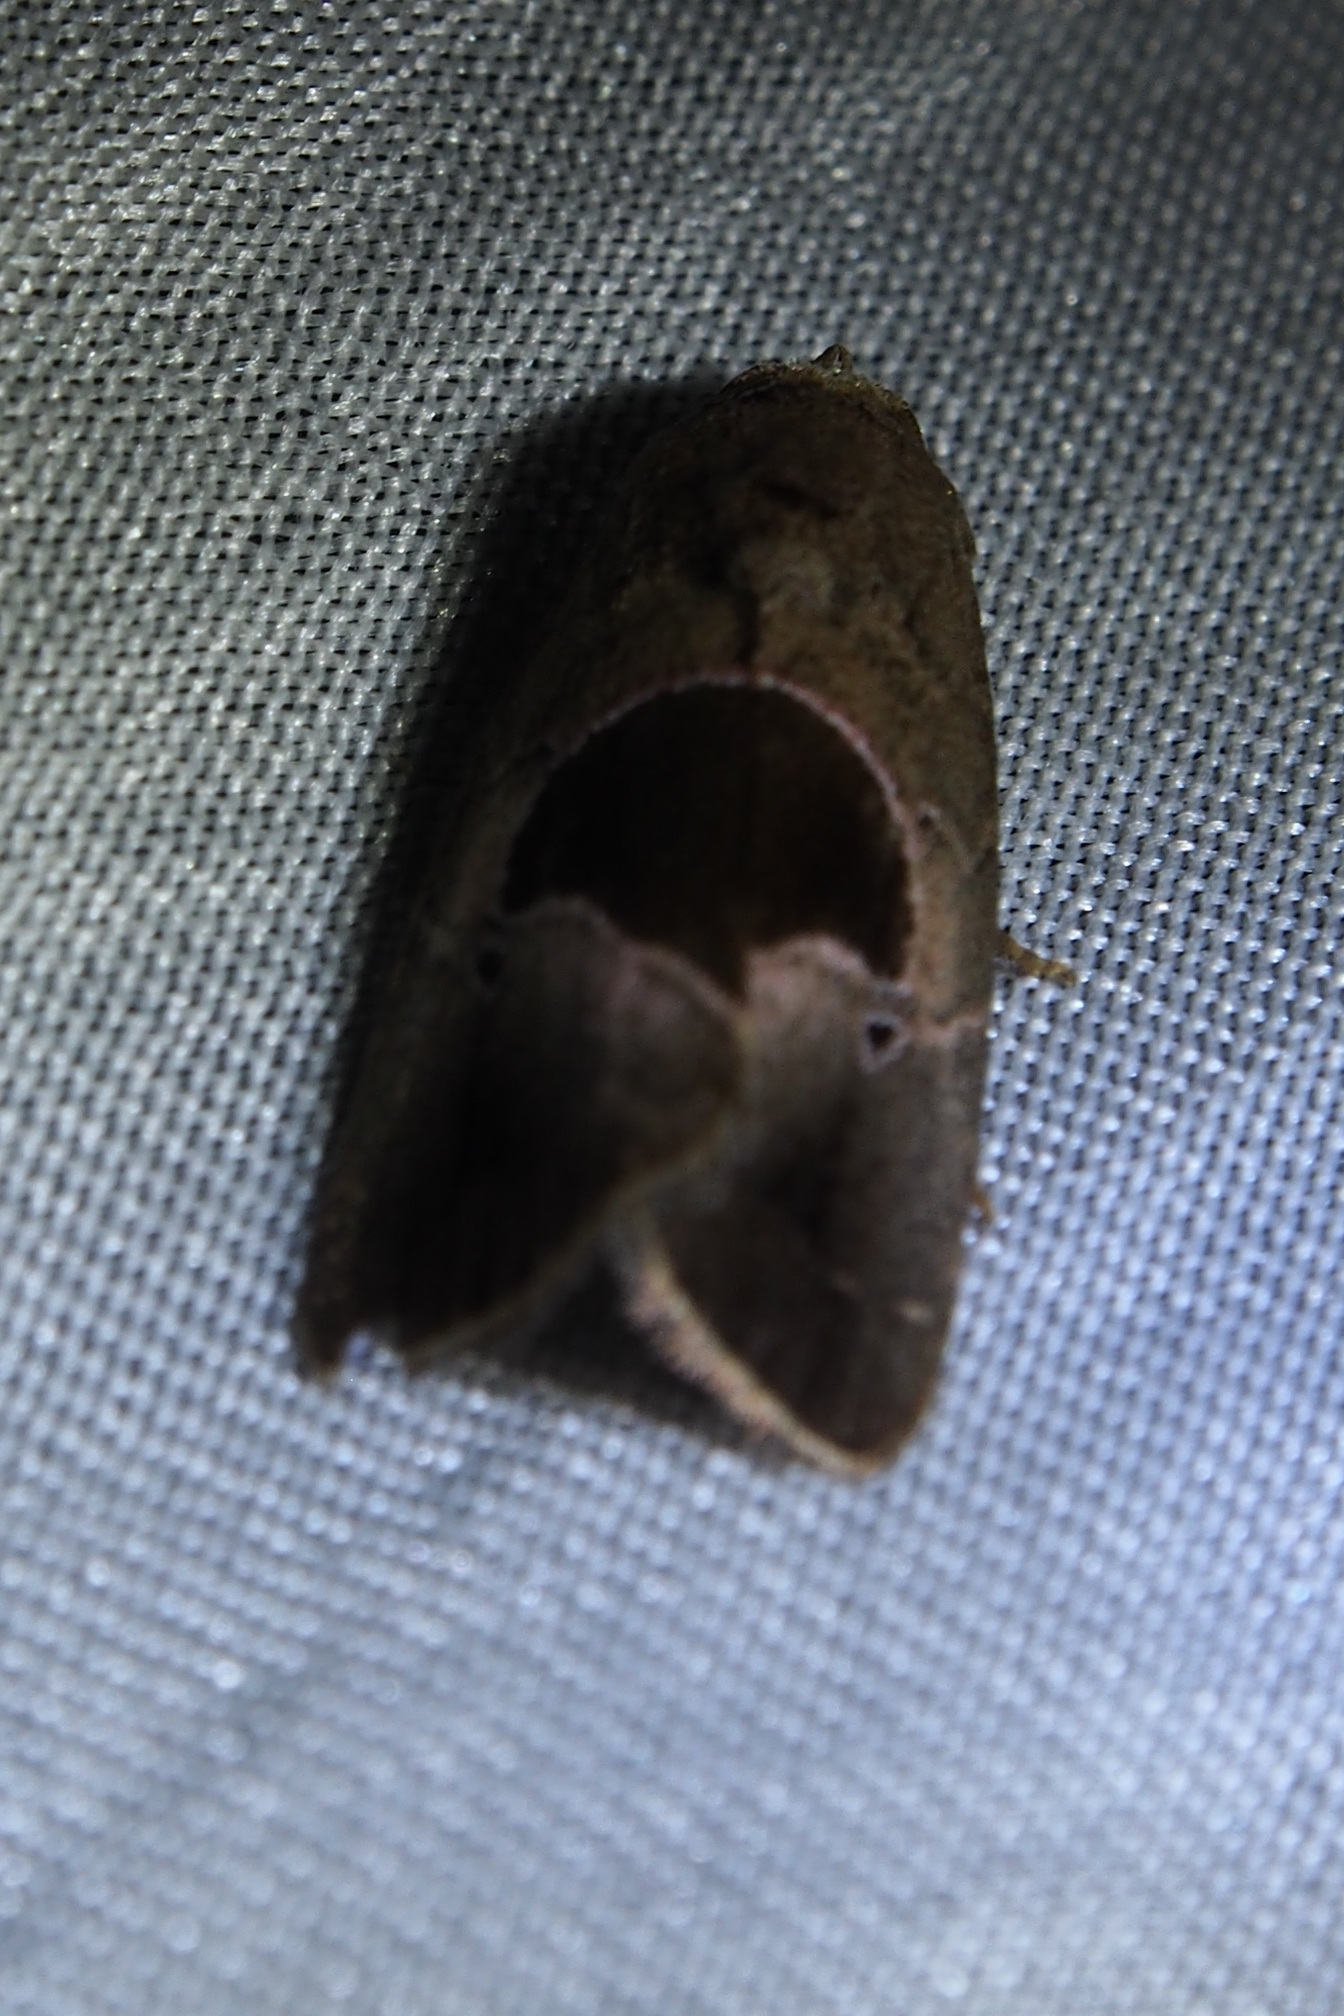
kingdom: Animalia
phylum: Arthropoda
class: Insecta
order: Lepidoptera
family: Noctuidae
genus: Elaphria
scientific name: Elaphria deltoides
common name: Cutworm moth
